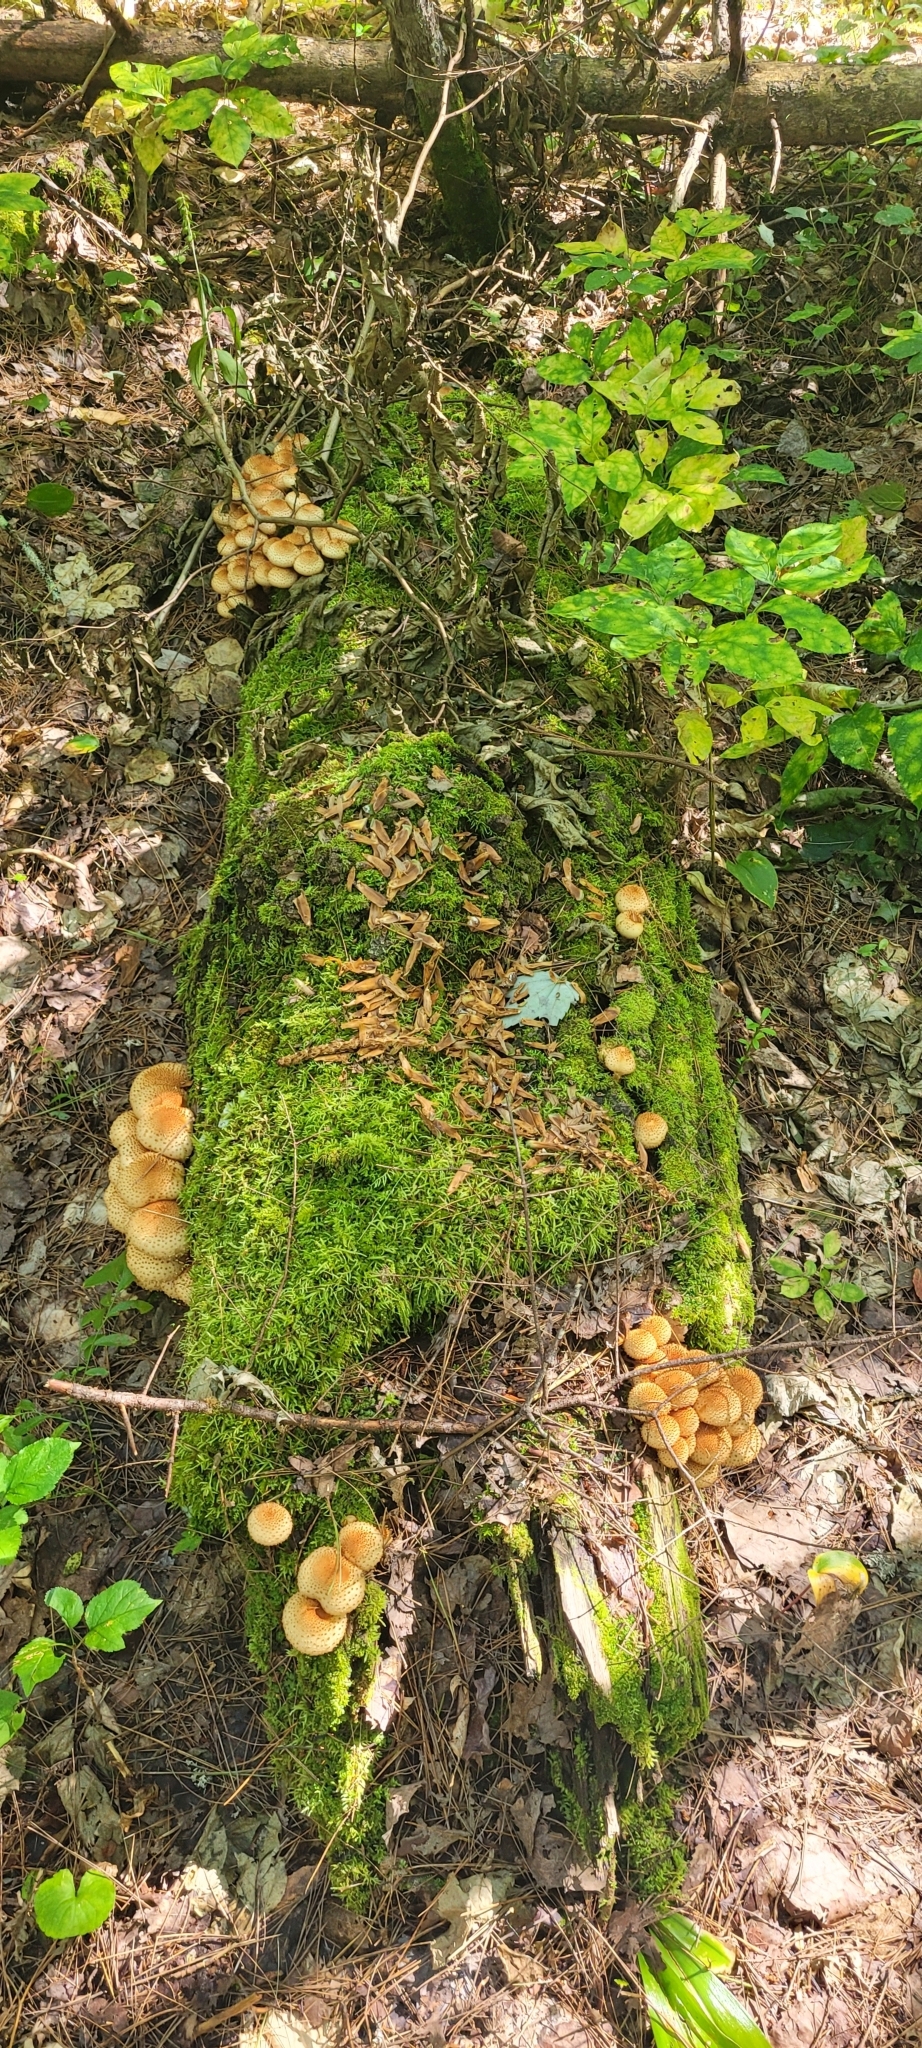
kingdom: Fungi
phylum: Basidiomycota
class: Agaricomycetes
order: Agaricales
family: Strophariaceae
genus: Pholiota
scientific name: Pholiota squarrosoides
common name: Sharp-scaly pholiota
